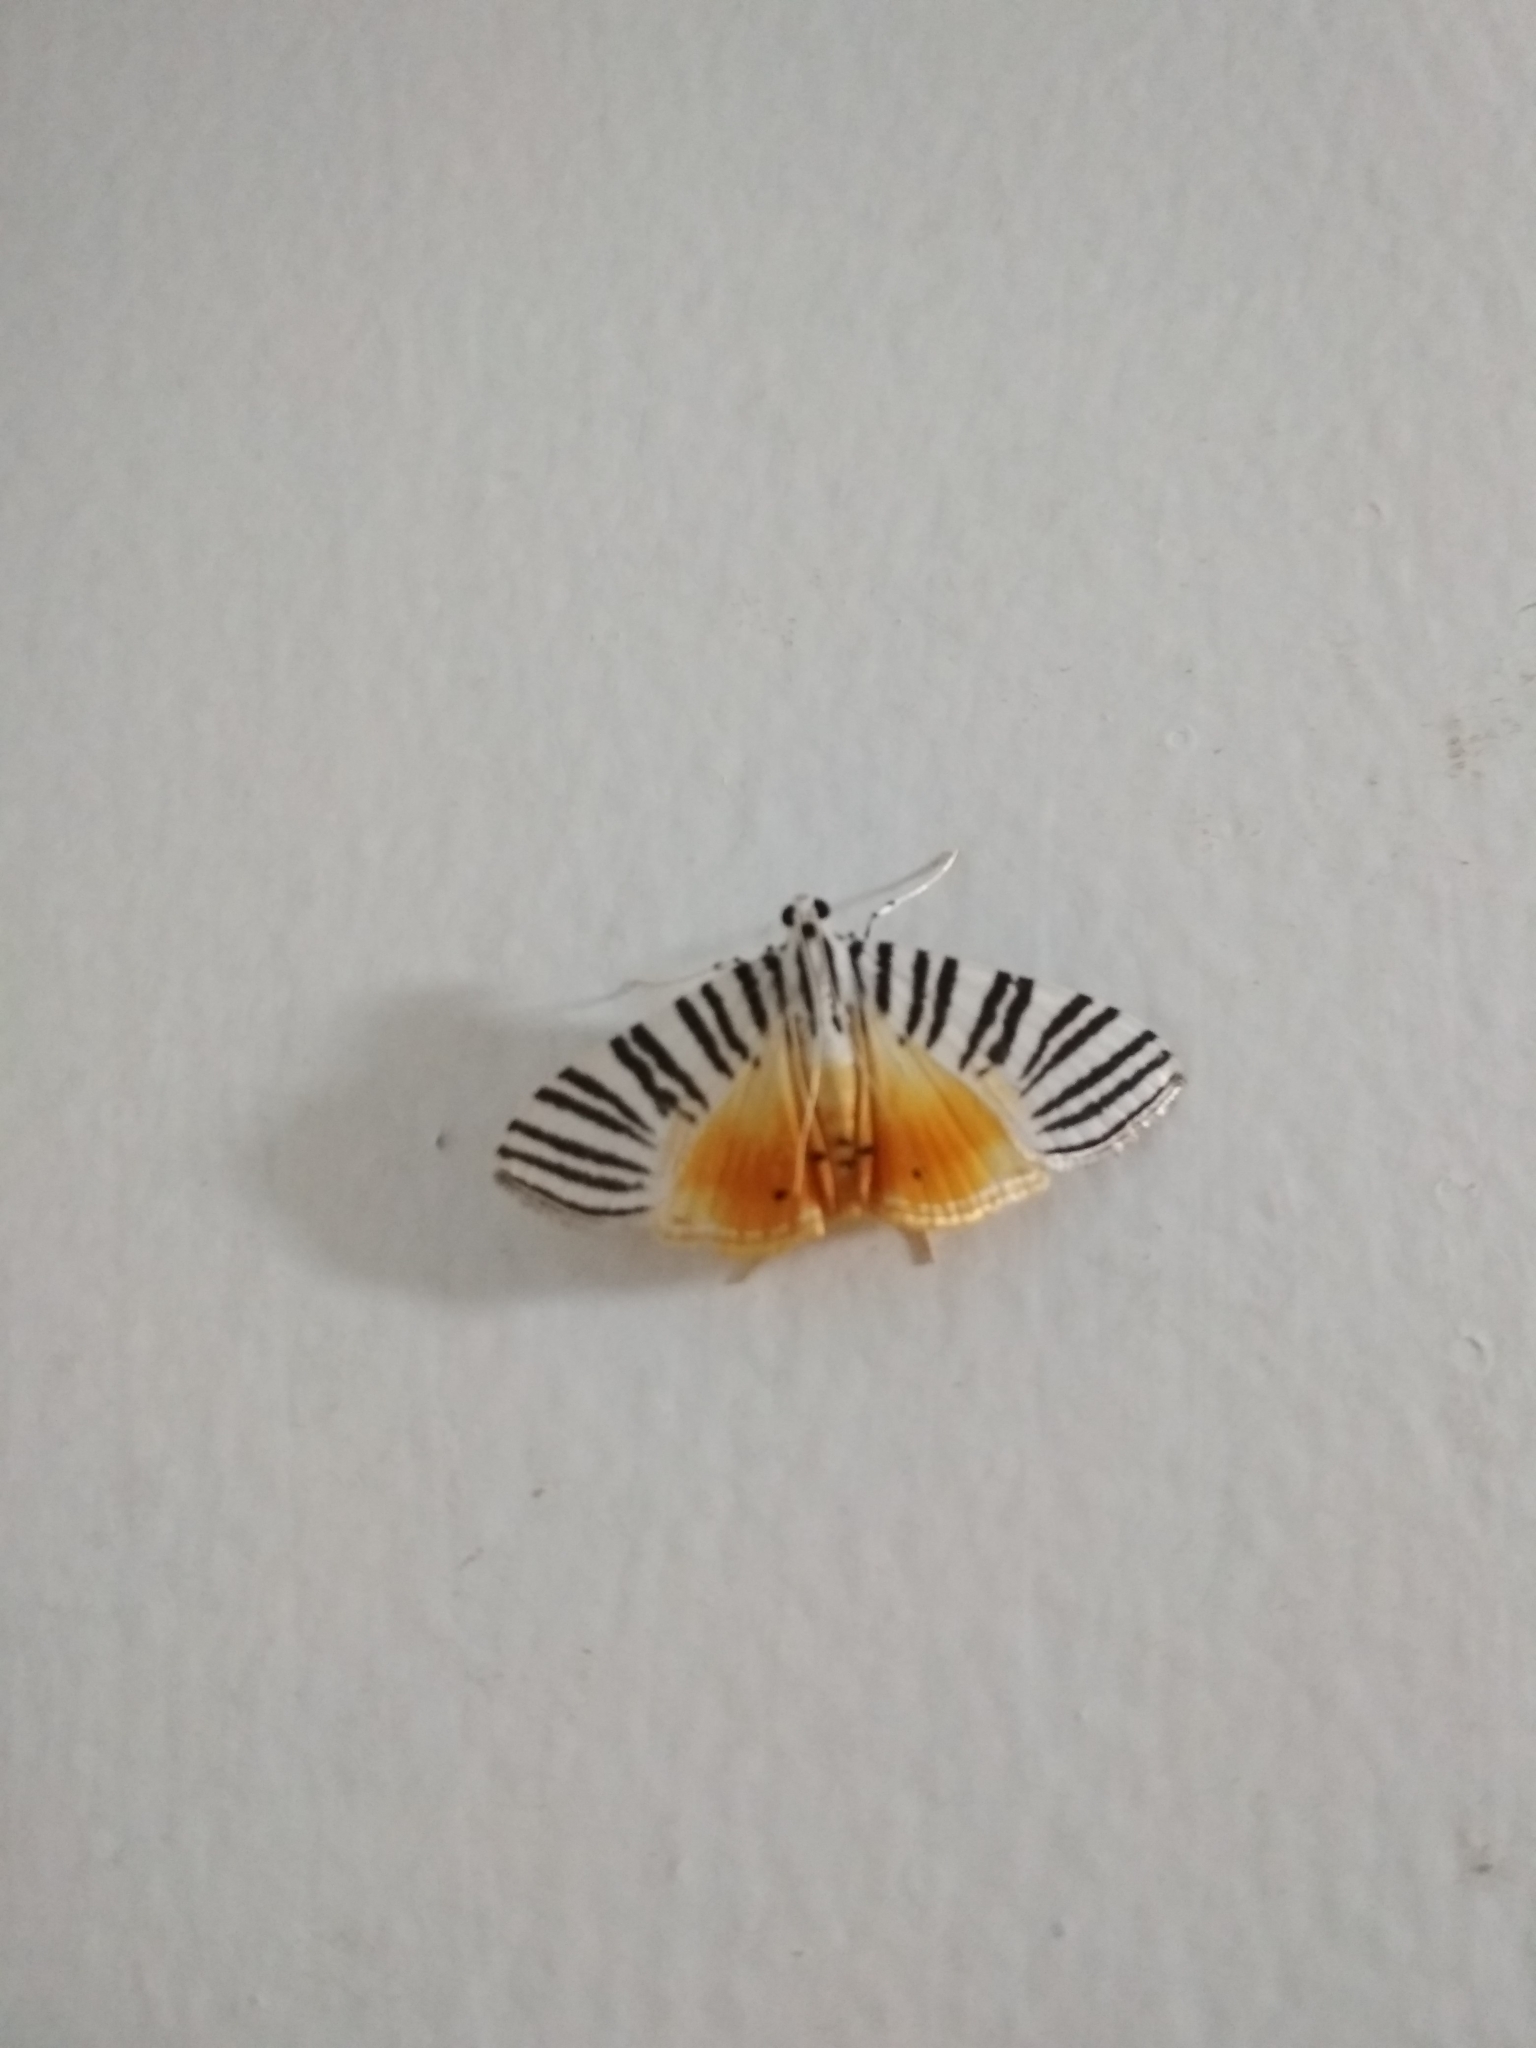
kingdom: Animalia
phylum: Arthropoda
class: Insecta
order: Lepidoptera
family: Crambidae
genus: Dichocrocis
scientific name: Dichocrocis zebralis
